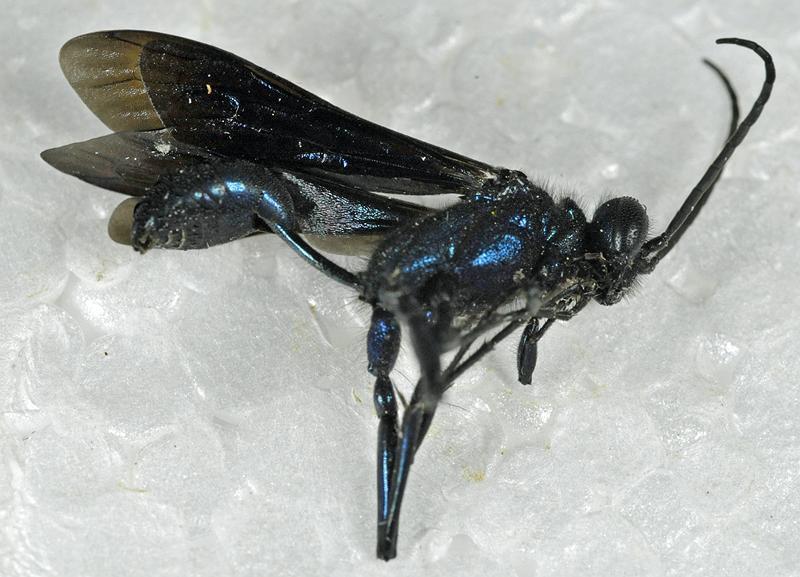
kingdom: Animalia
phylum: Arthropoda
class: Insecta
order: Hymenoptera
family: Sphecidae
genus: Chalybion
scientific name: Chalybion californicum
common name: Mud dauber
